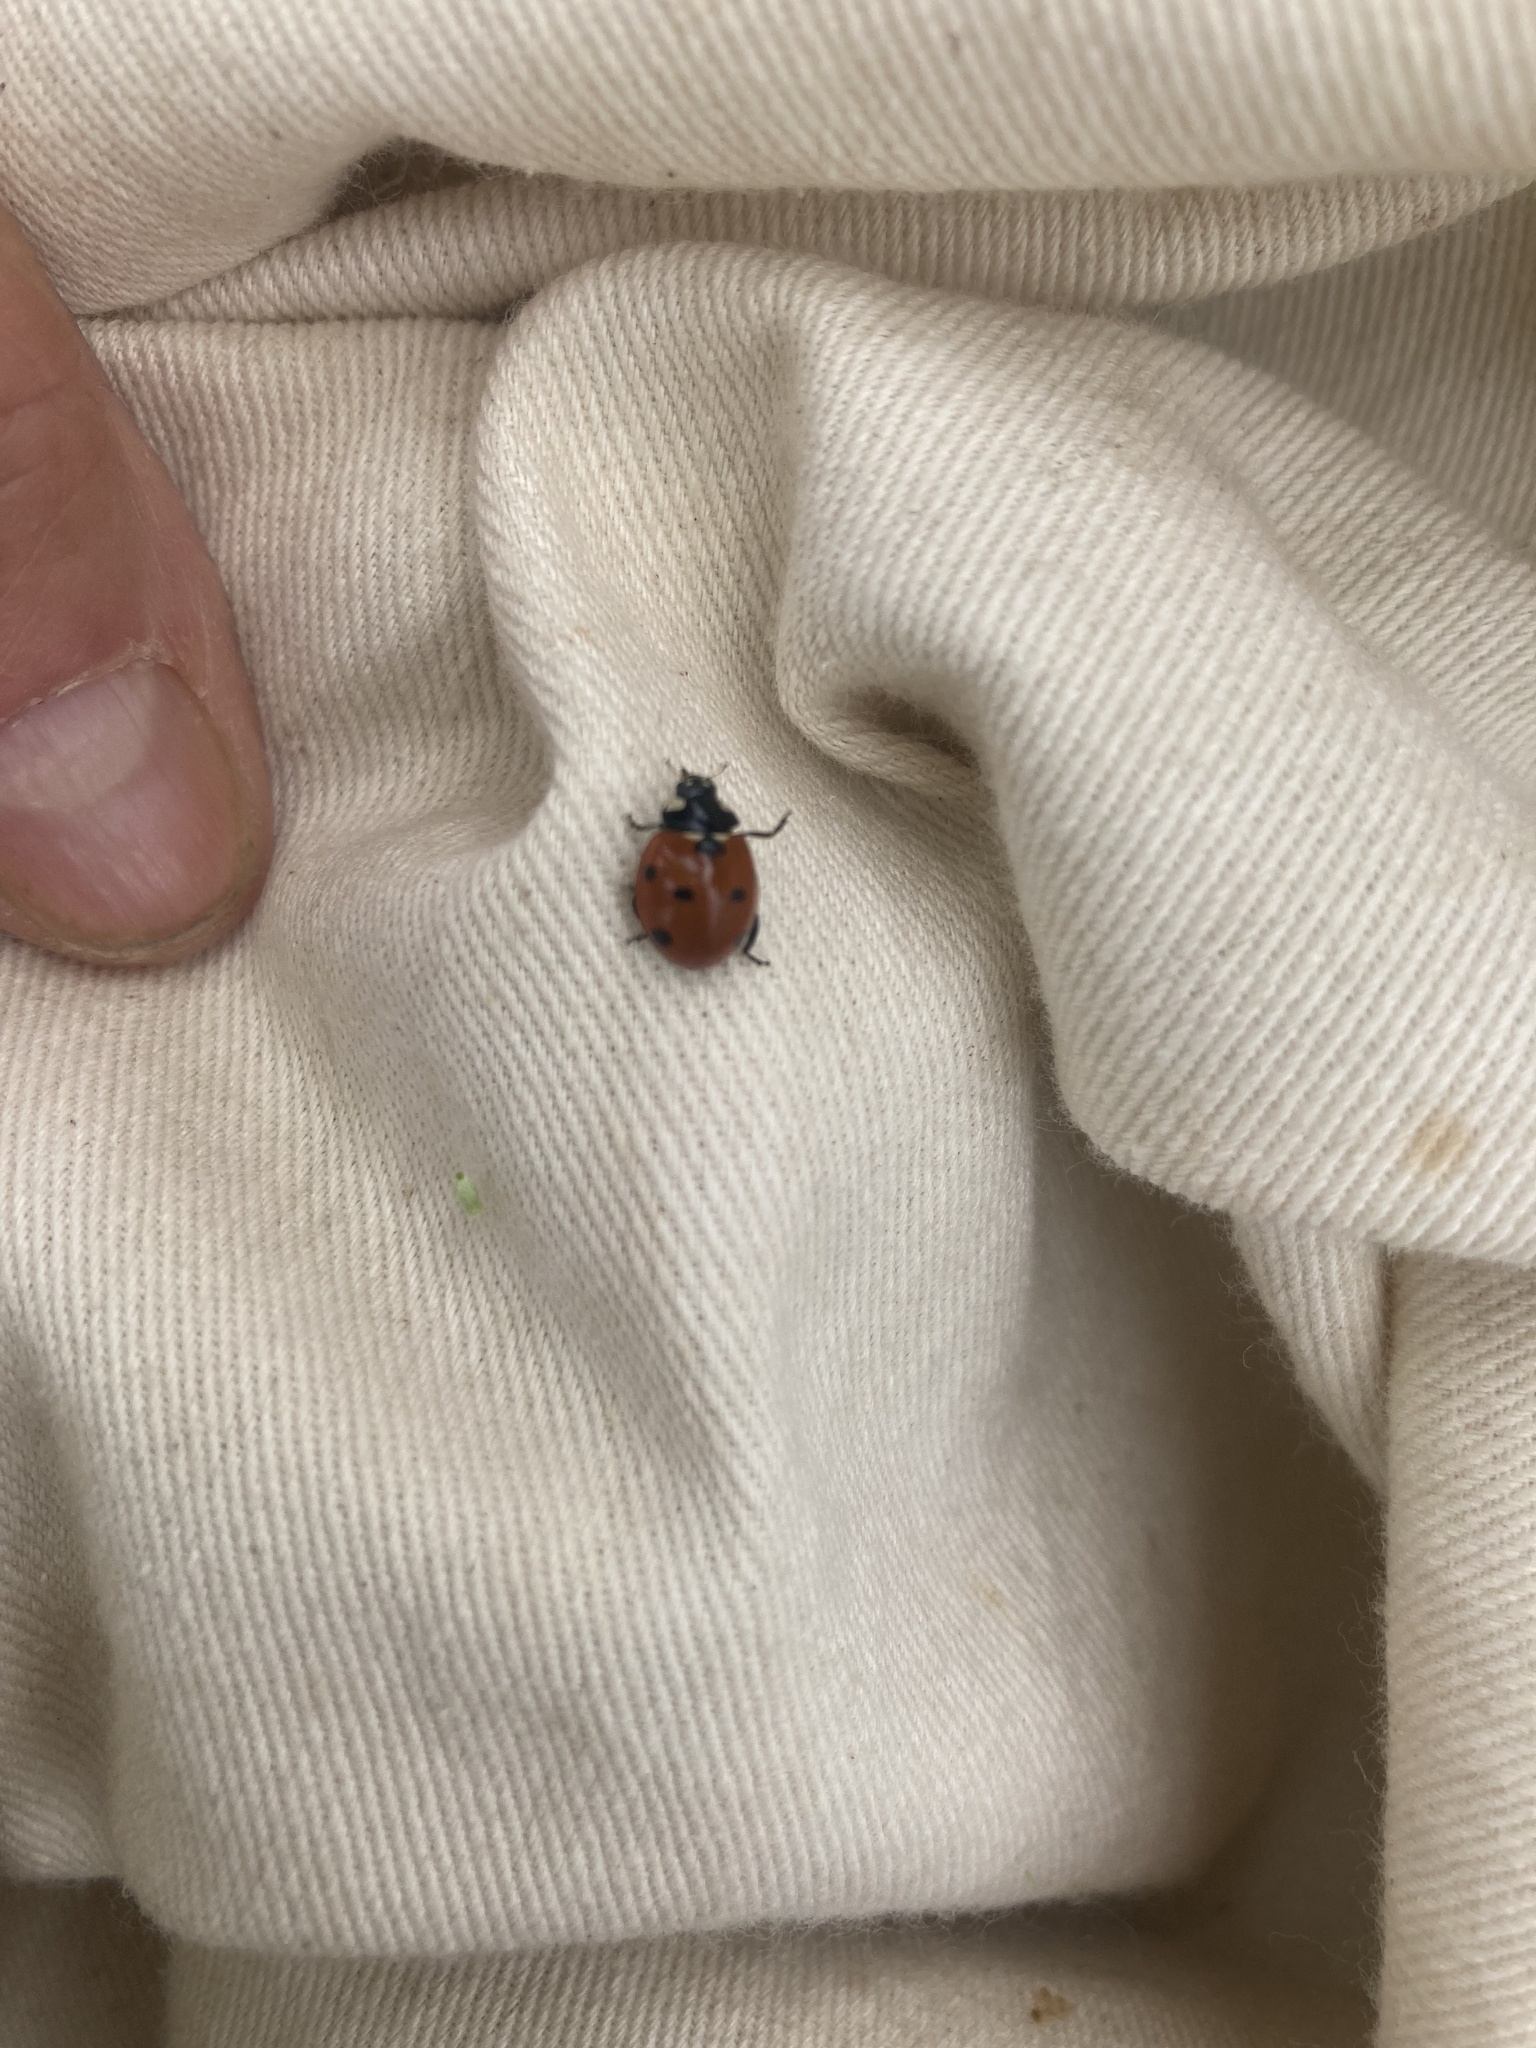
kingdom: Animalia
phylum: Arthropoda
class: Insecta
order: Coleoptera
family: Coccinellidae
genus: Coccinella
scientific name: Coccinella septempunctata
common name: Sevenspotted lady beetle
